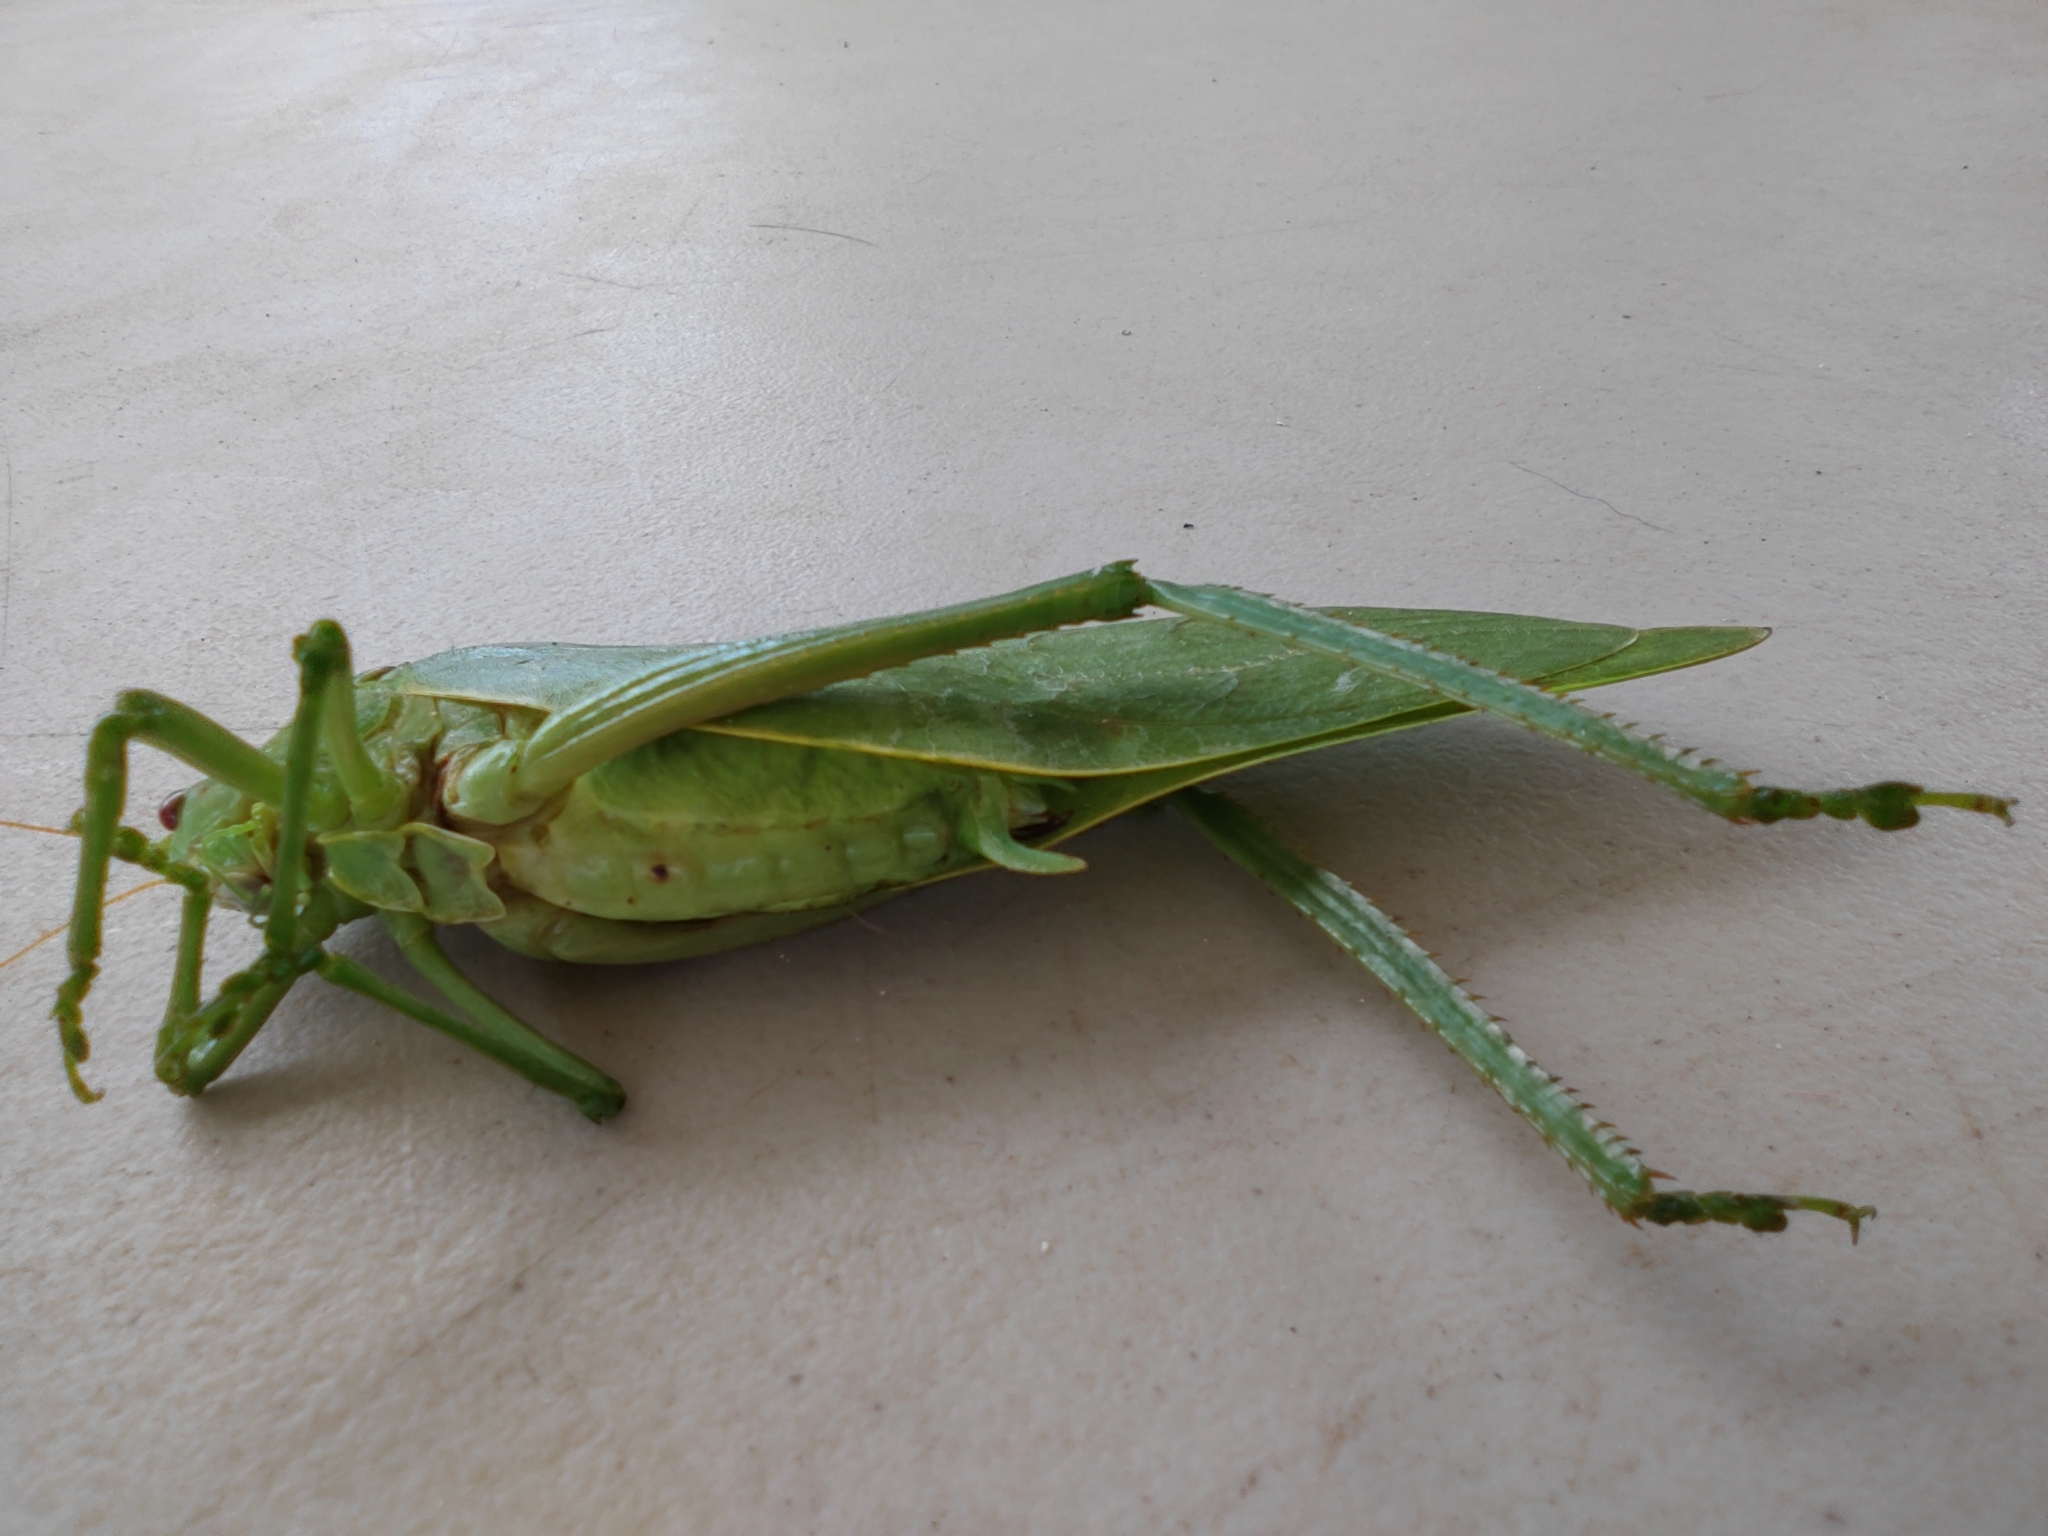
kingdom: Animalia
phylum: Arthropoda
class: Insecta
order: Orthoptera
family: Tettigoniidae
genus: Stilpnochlora
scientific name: Stilpnochlora azteca
